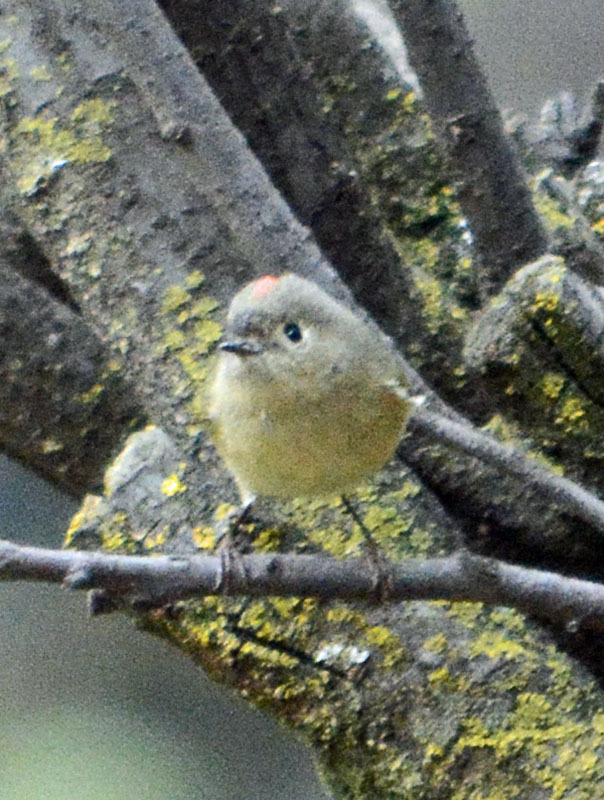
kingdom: Animalia
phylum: Chordata
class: Aves
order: Passeriformes
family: Regulidae
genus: Regulus
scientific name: Regulus calendula
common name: Ruby-crowned kinglet
